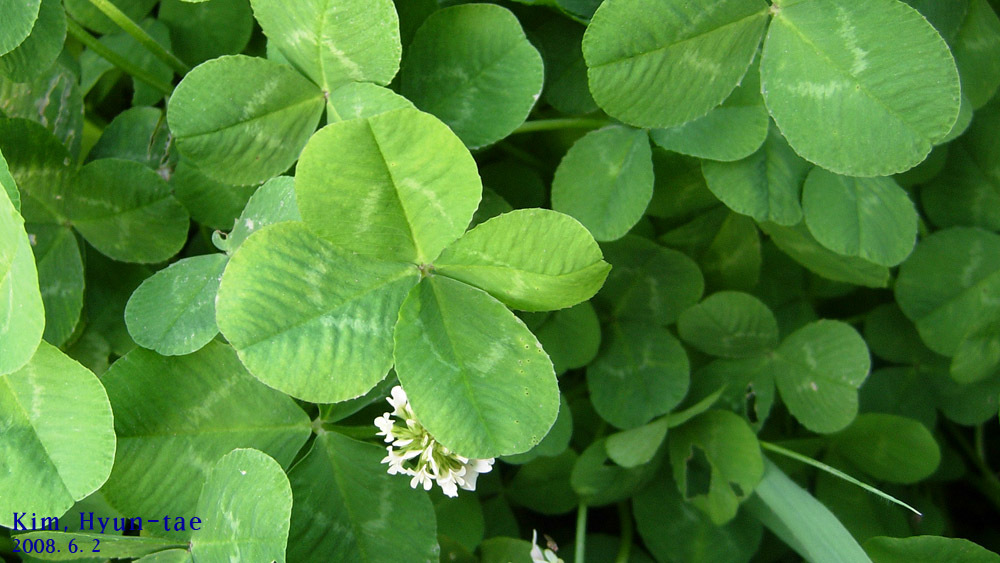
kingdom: Plantae
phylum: Tracheophyta
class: Magnoliopsida
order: Fabales
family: Fabaceae
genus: Trifolium
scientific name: Trifolium repens
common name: White clover
